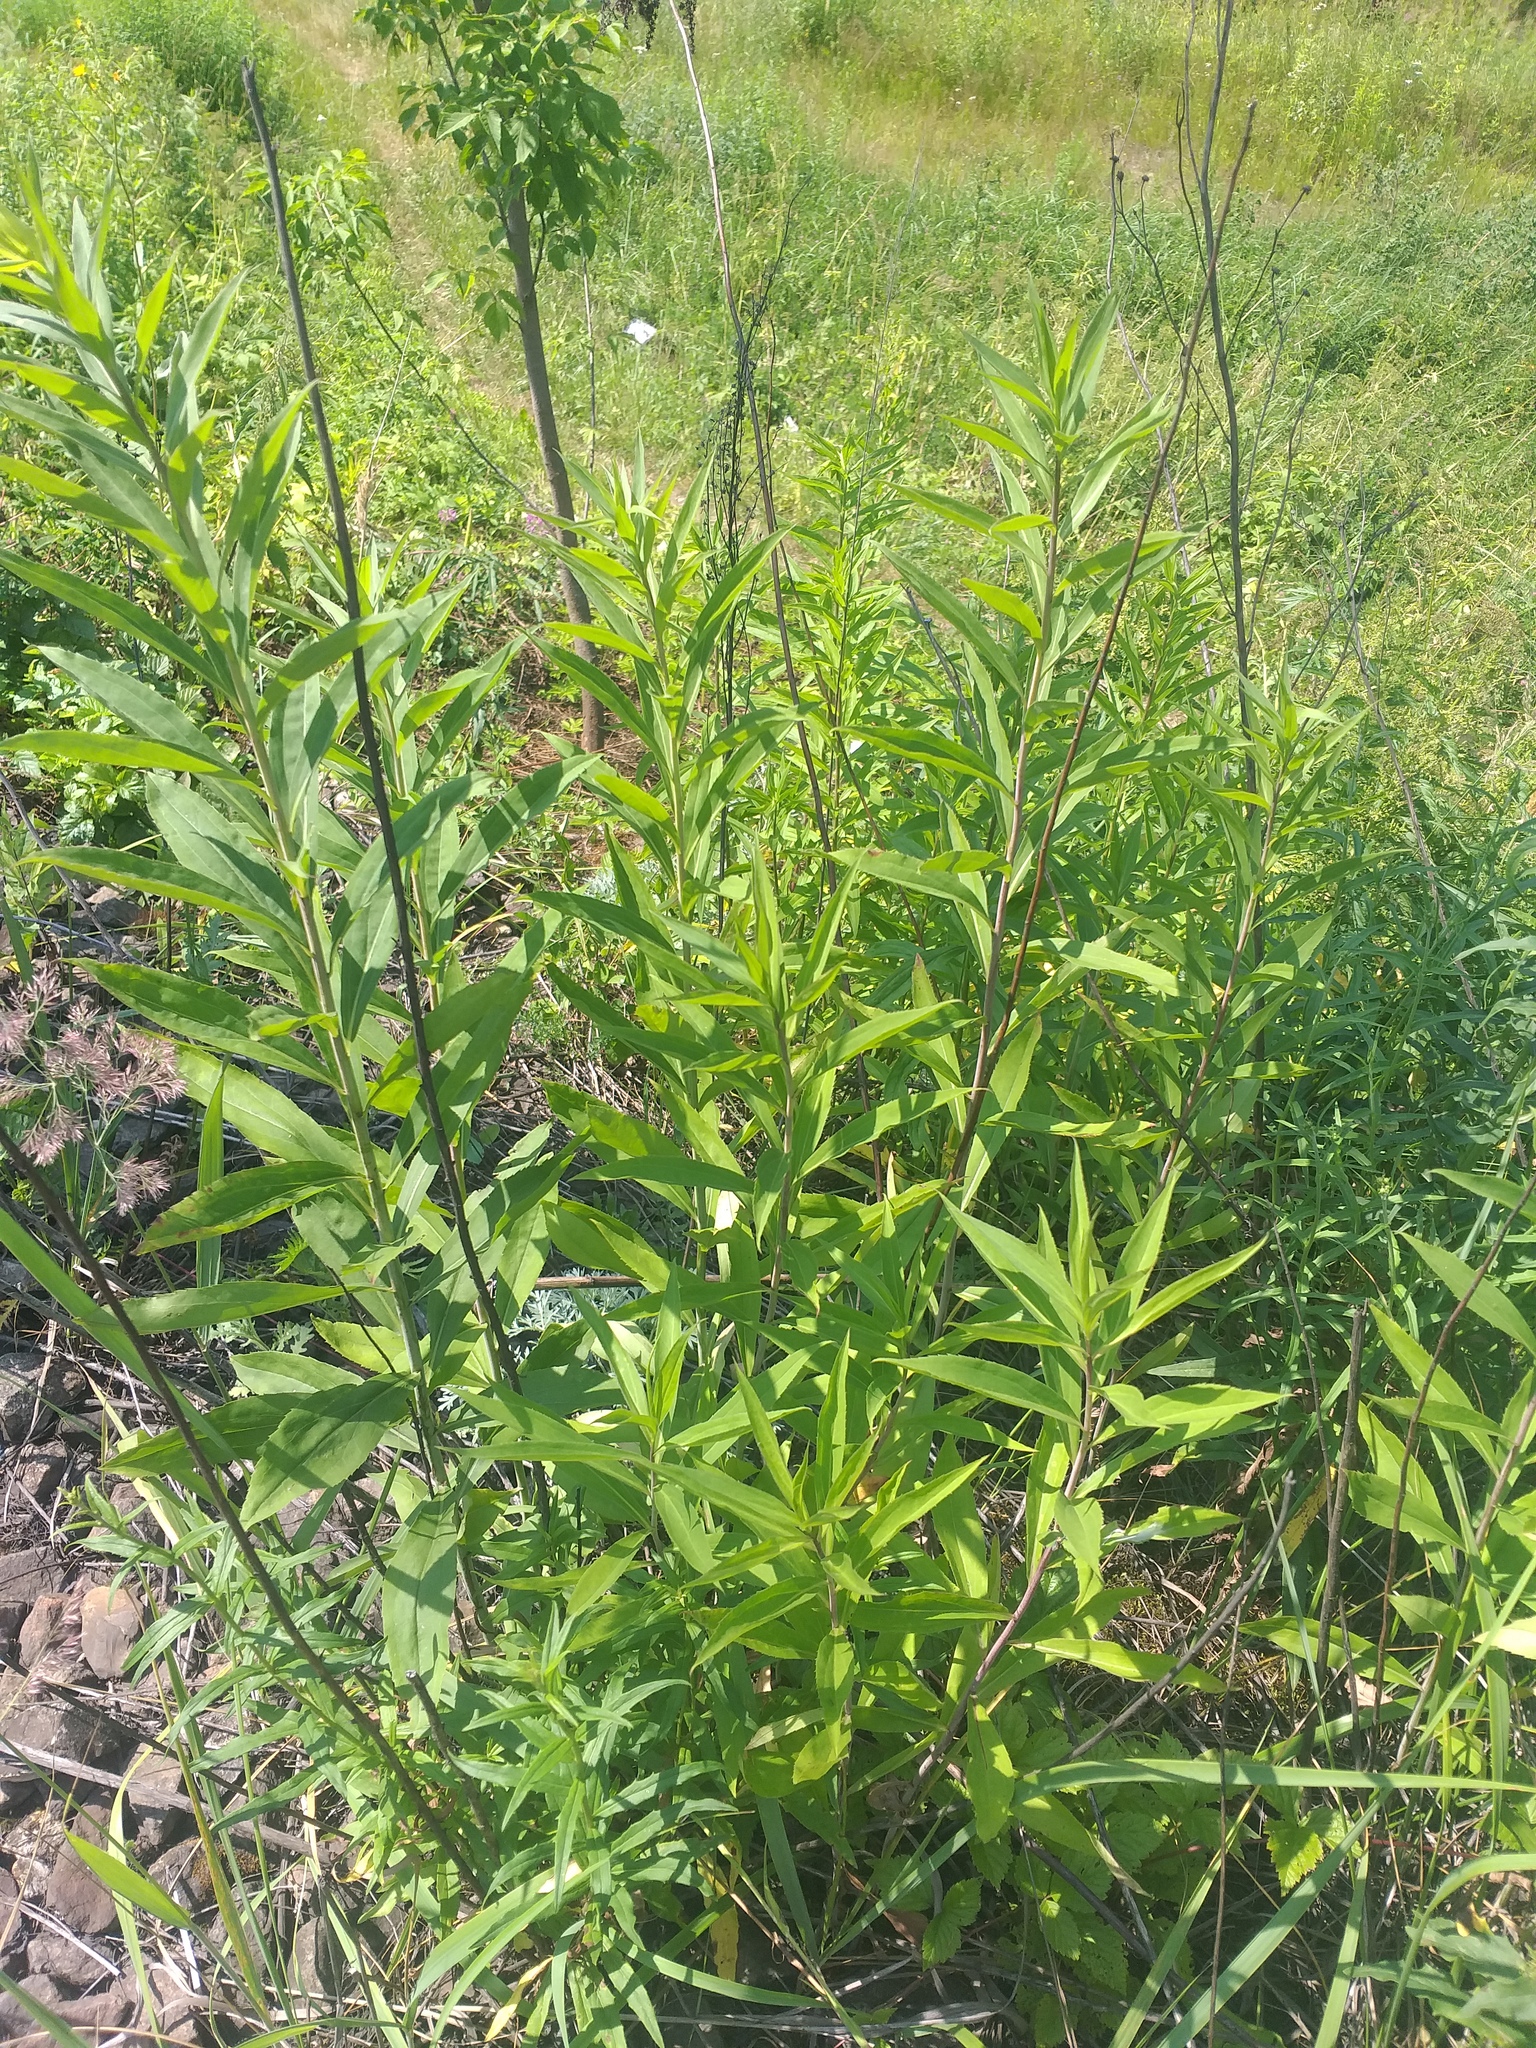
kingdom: Plantae
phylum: Tracheophyta
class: Magnoliopsida
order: Asterales
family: Asteraceae
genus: Solidago
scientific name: Solidago gigantea
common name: Giant goldenrod
